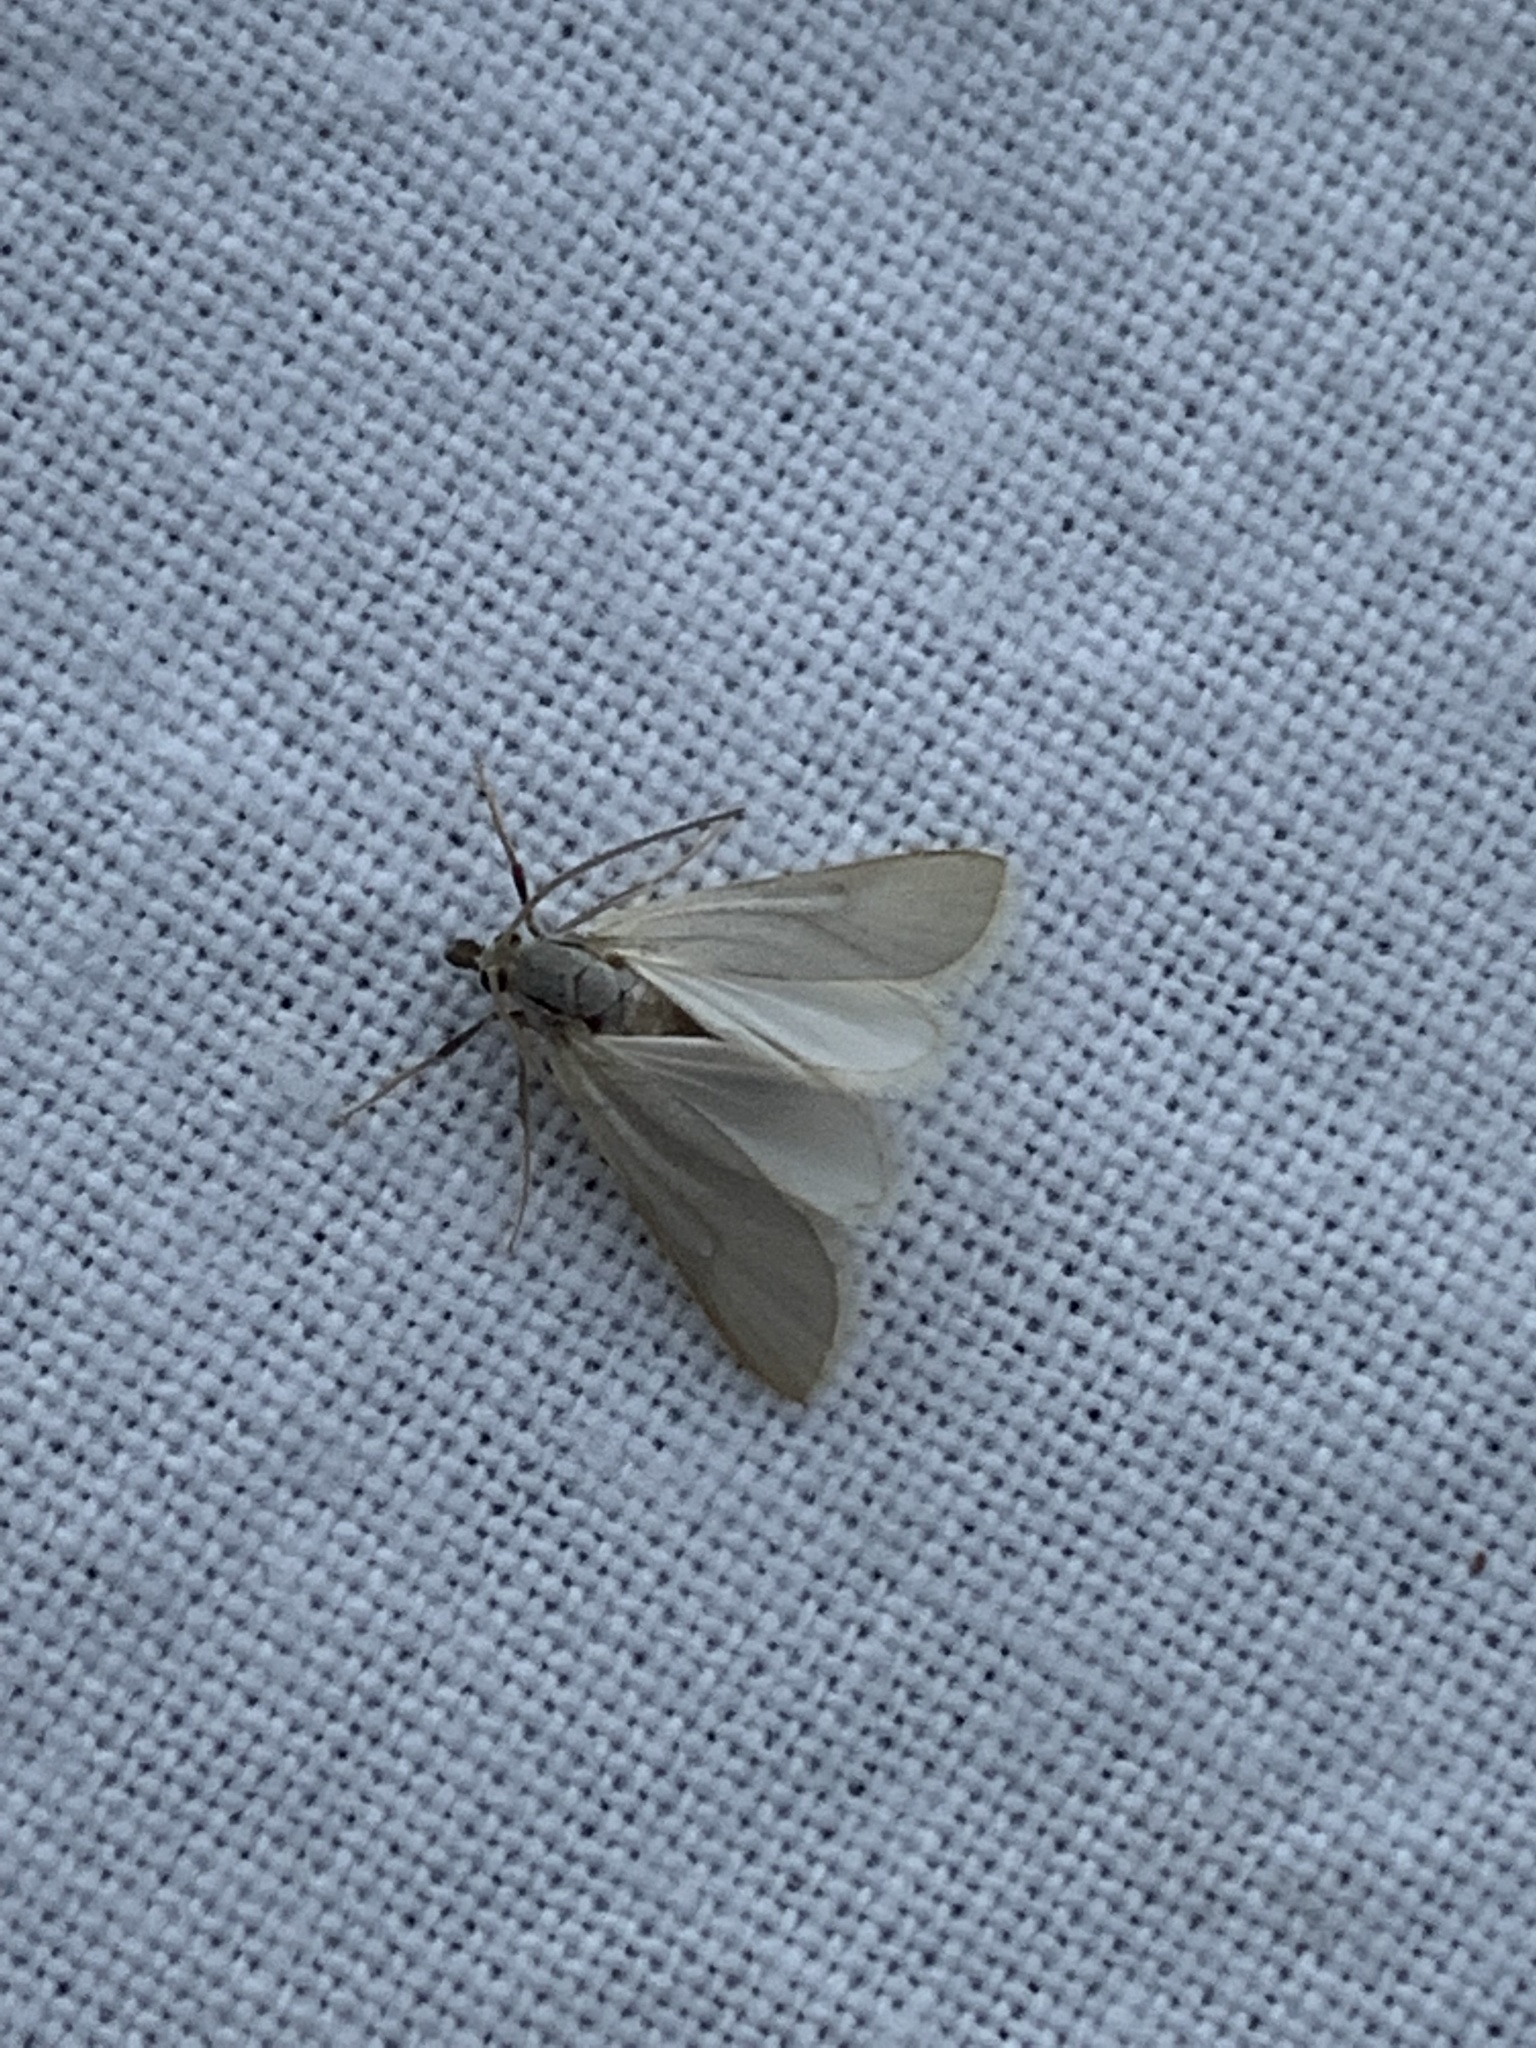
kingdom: Animalia
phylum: Arthropoda
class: Insecta
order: Lepidoptera
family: Crambidae
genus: Acentria
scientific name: Acentria ephemerella
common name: European water moth
